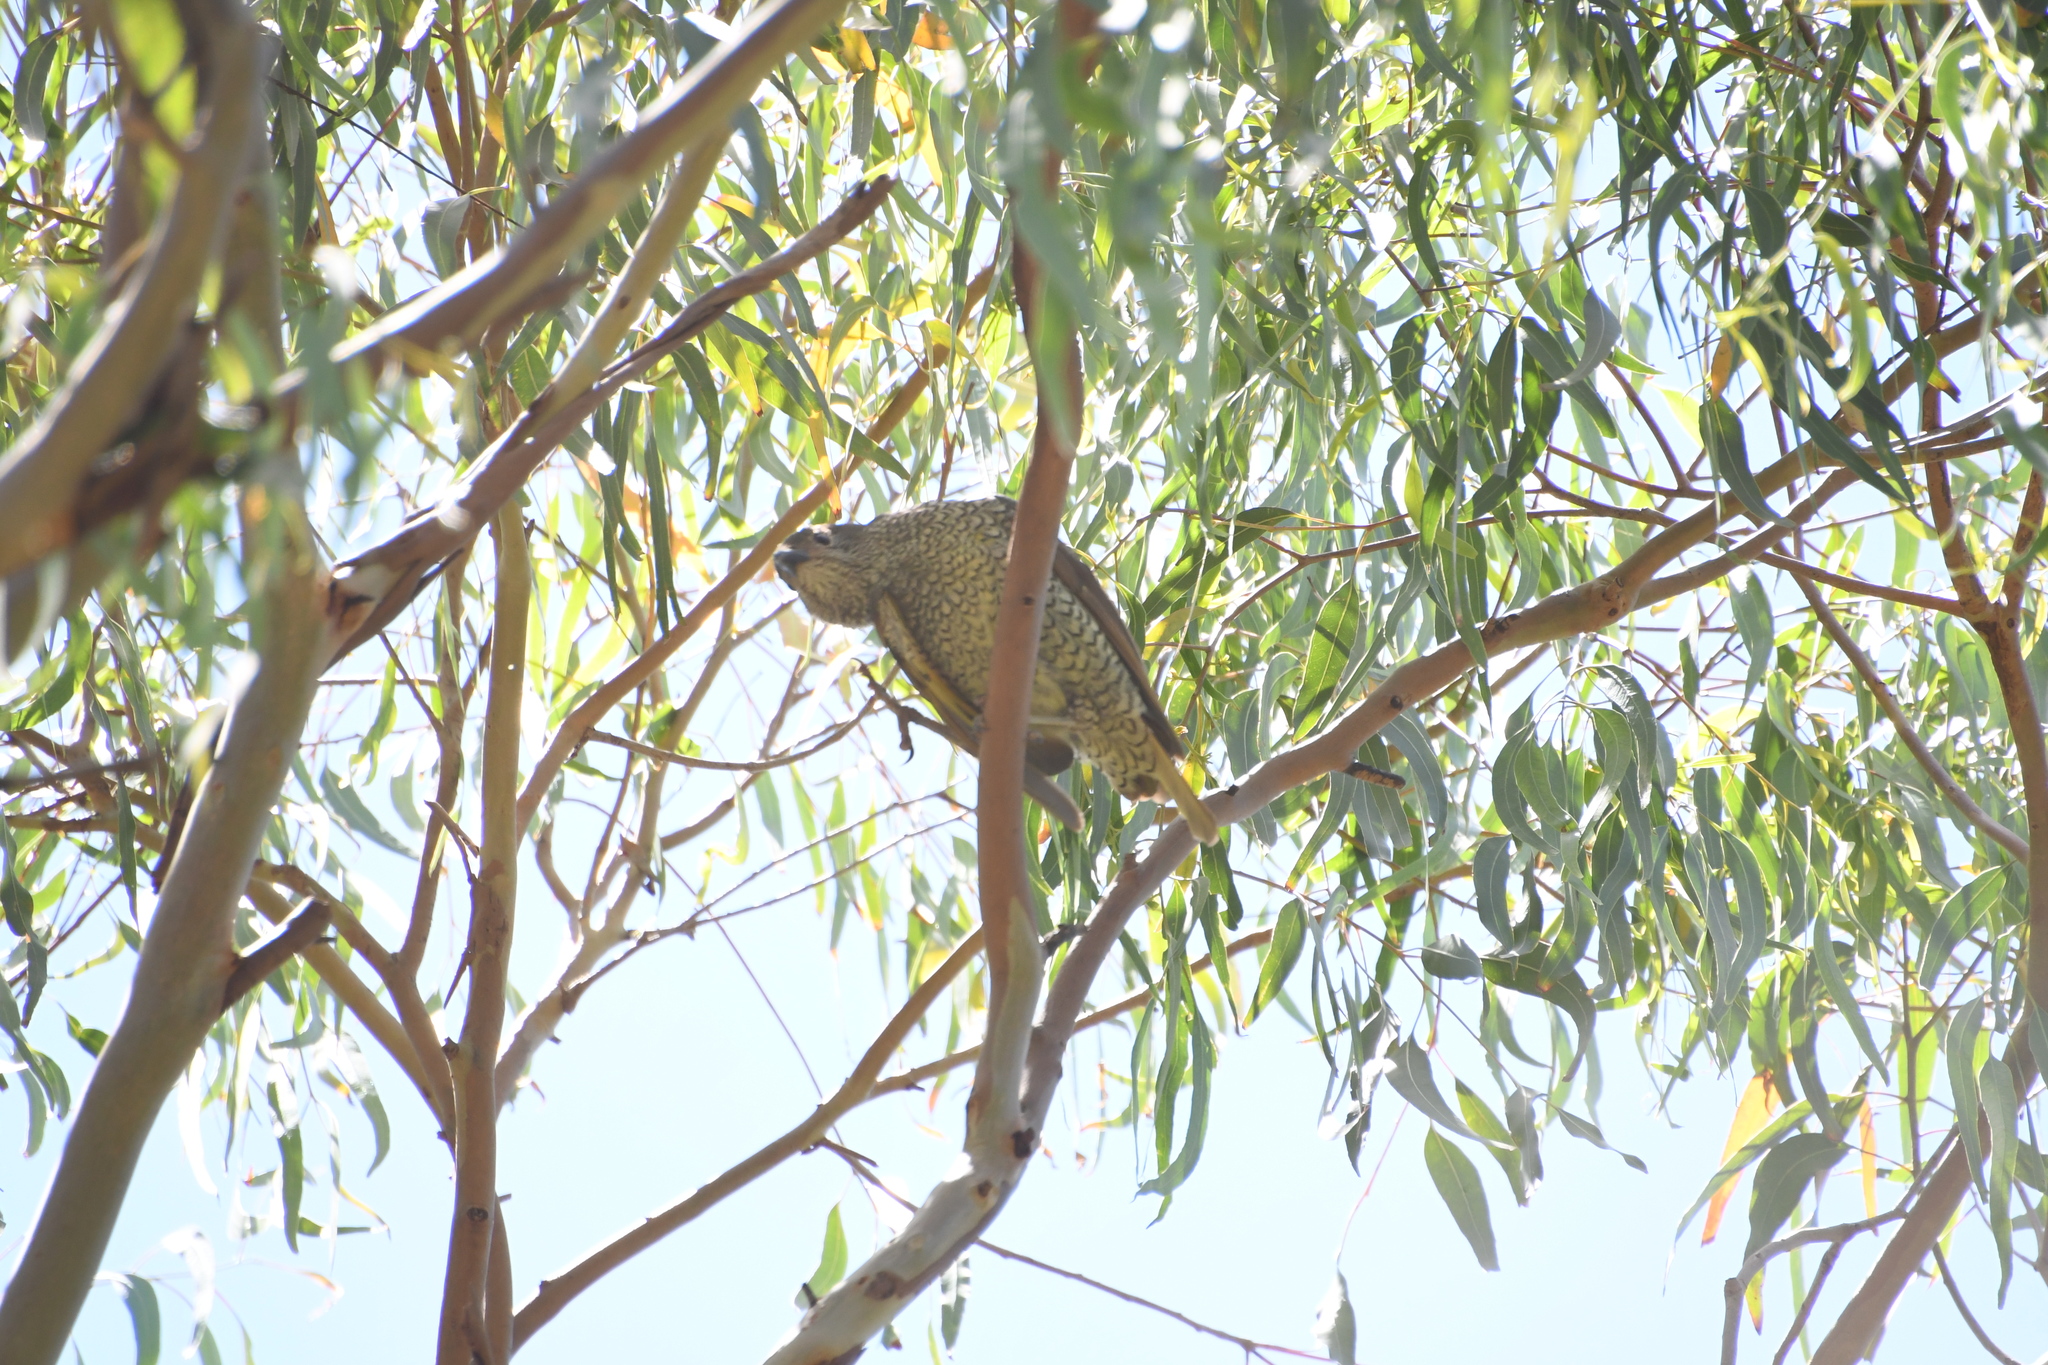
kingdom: Animalia
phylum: Chordata
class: Aves
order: Passeriformes
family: Ptilonorhynchidae
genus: Ptilonorhynchus
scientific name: Ptilonorhynchus violaceus
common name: Satin bowerbird
